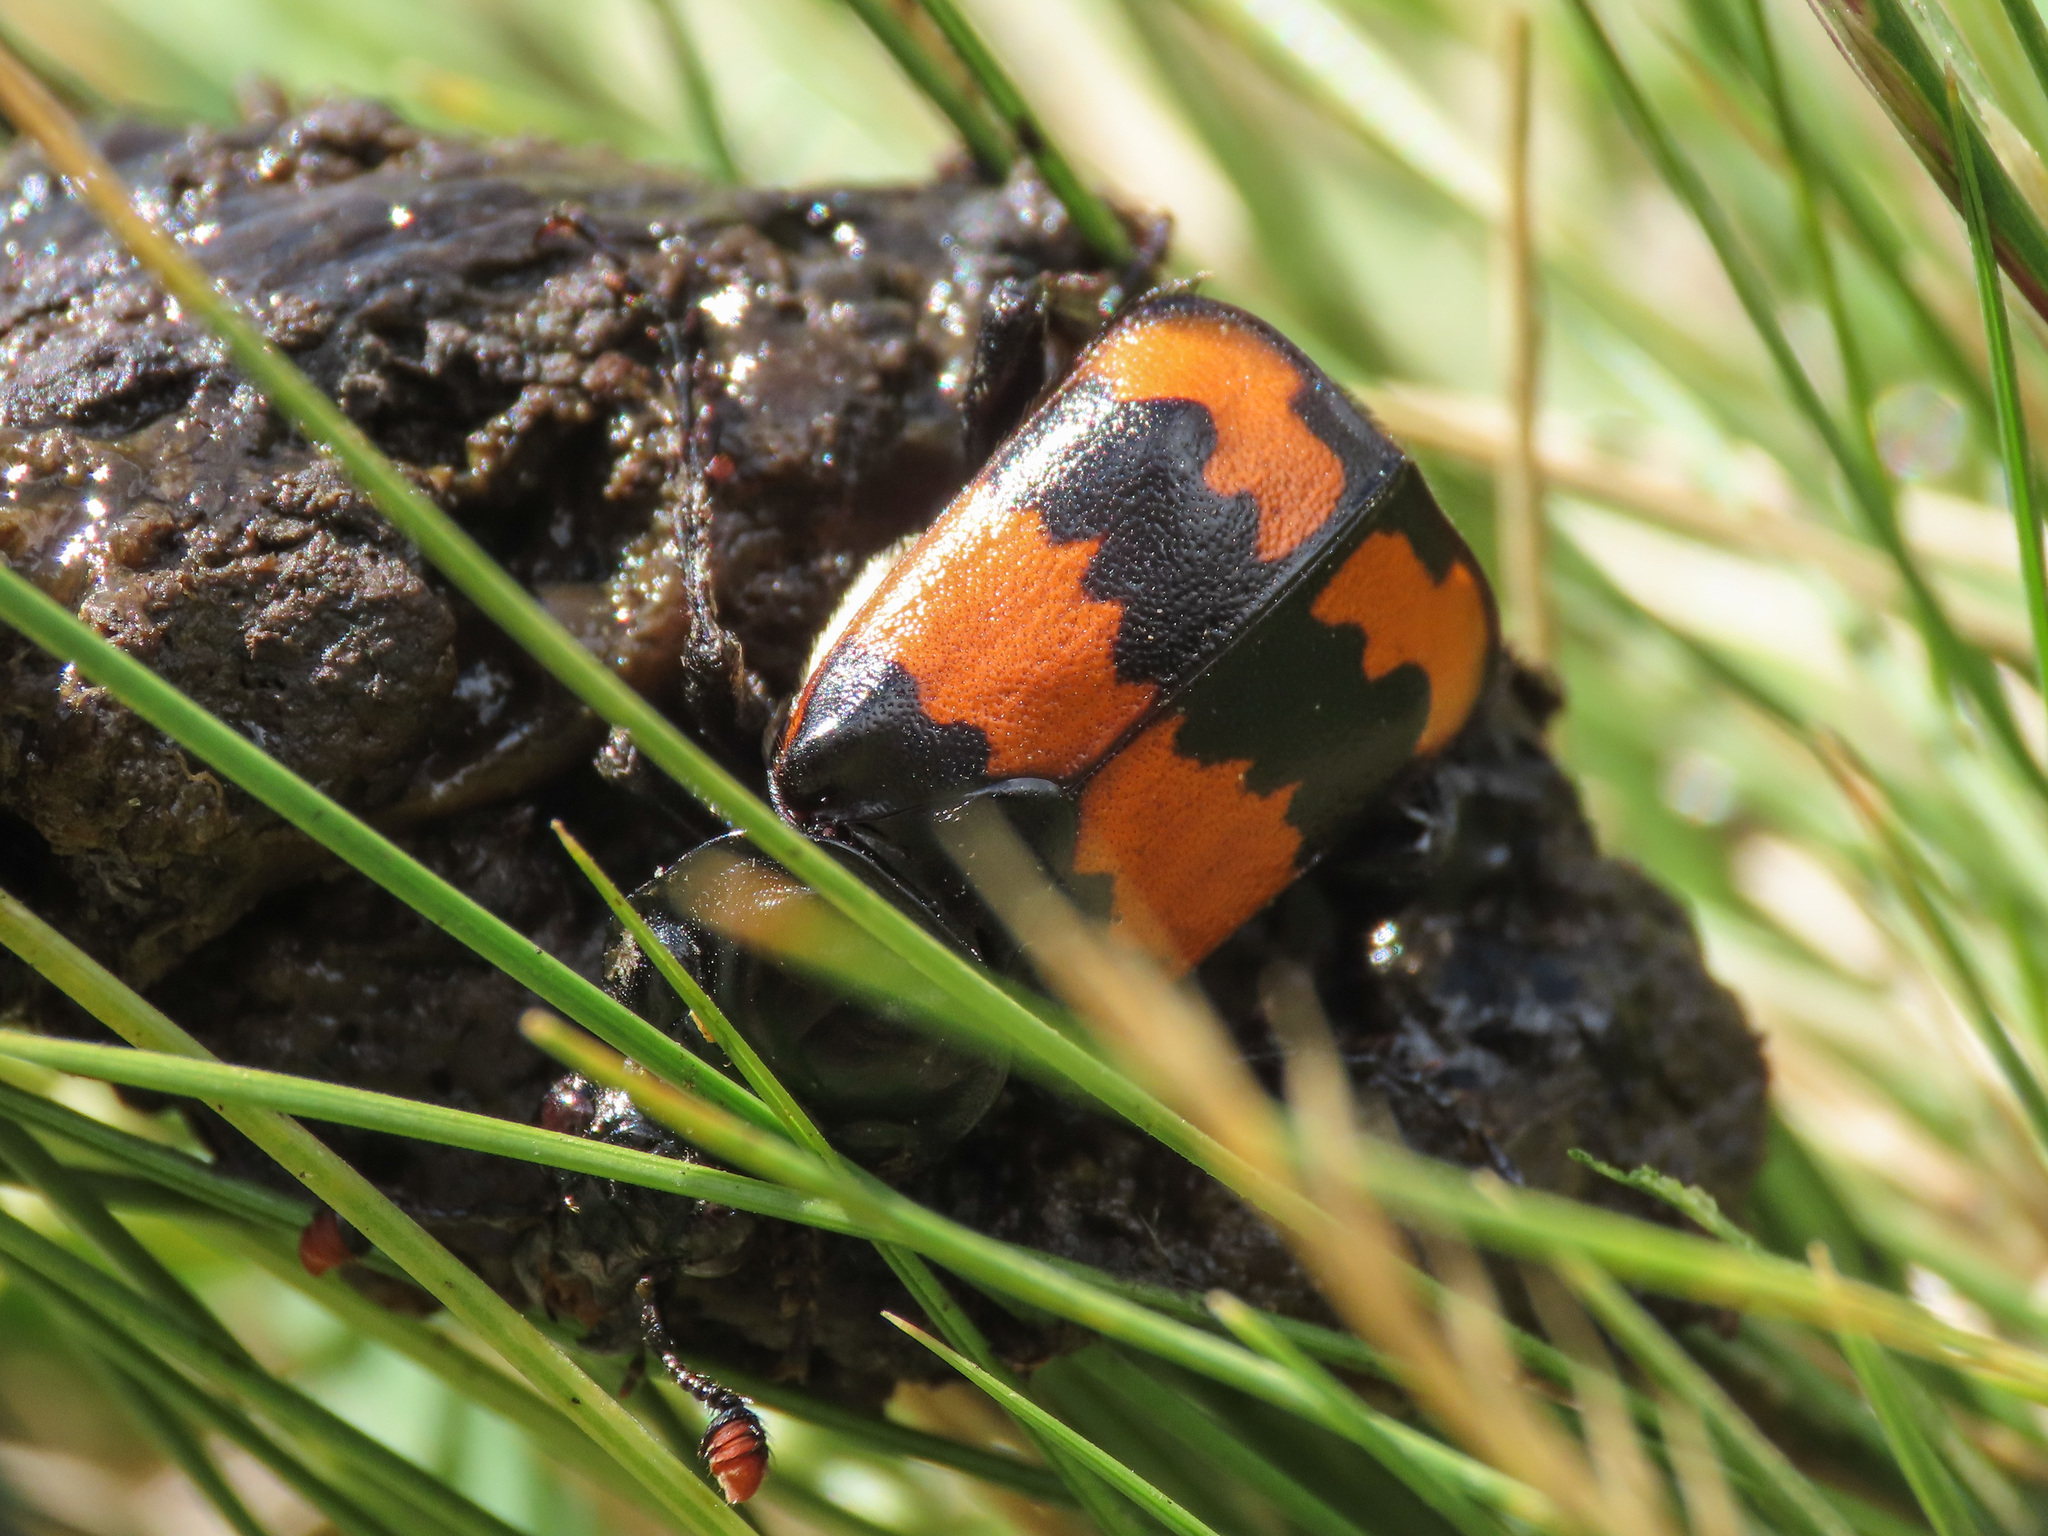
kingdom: Animalia
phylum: Arthropoda
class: Insecta
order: Coleoptera
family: Staphylinidae
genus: Nicrophorus
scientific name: Nicrophorus investigator
